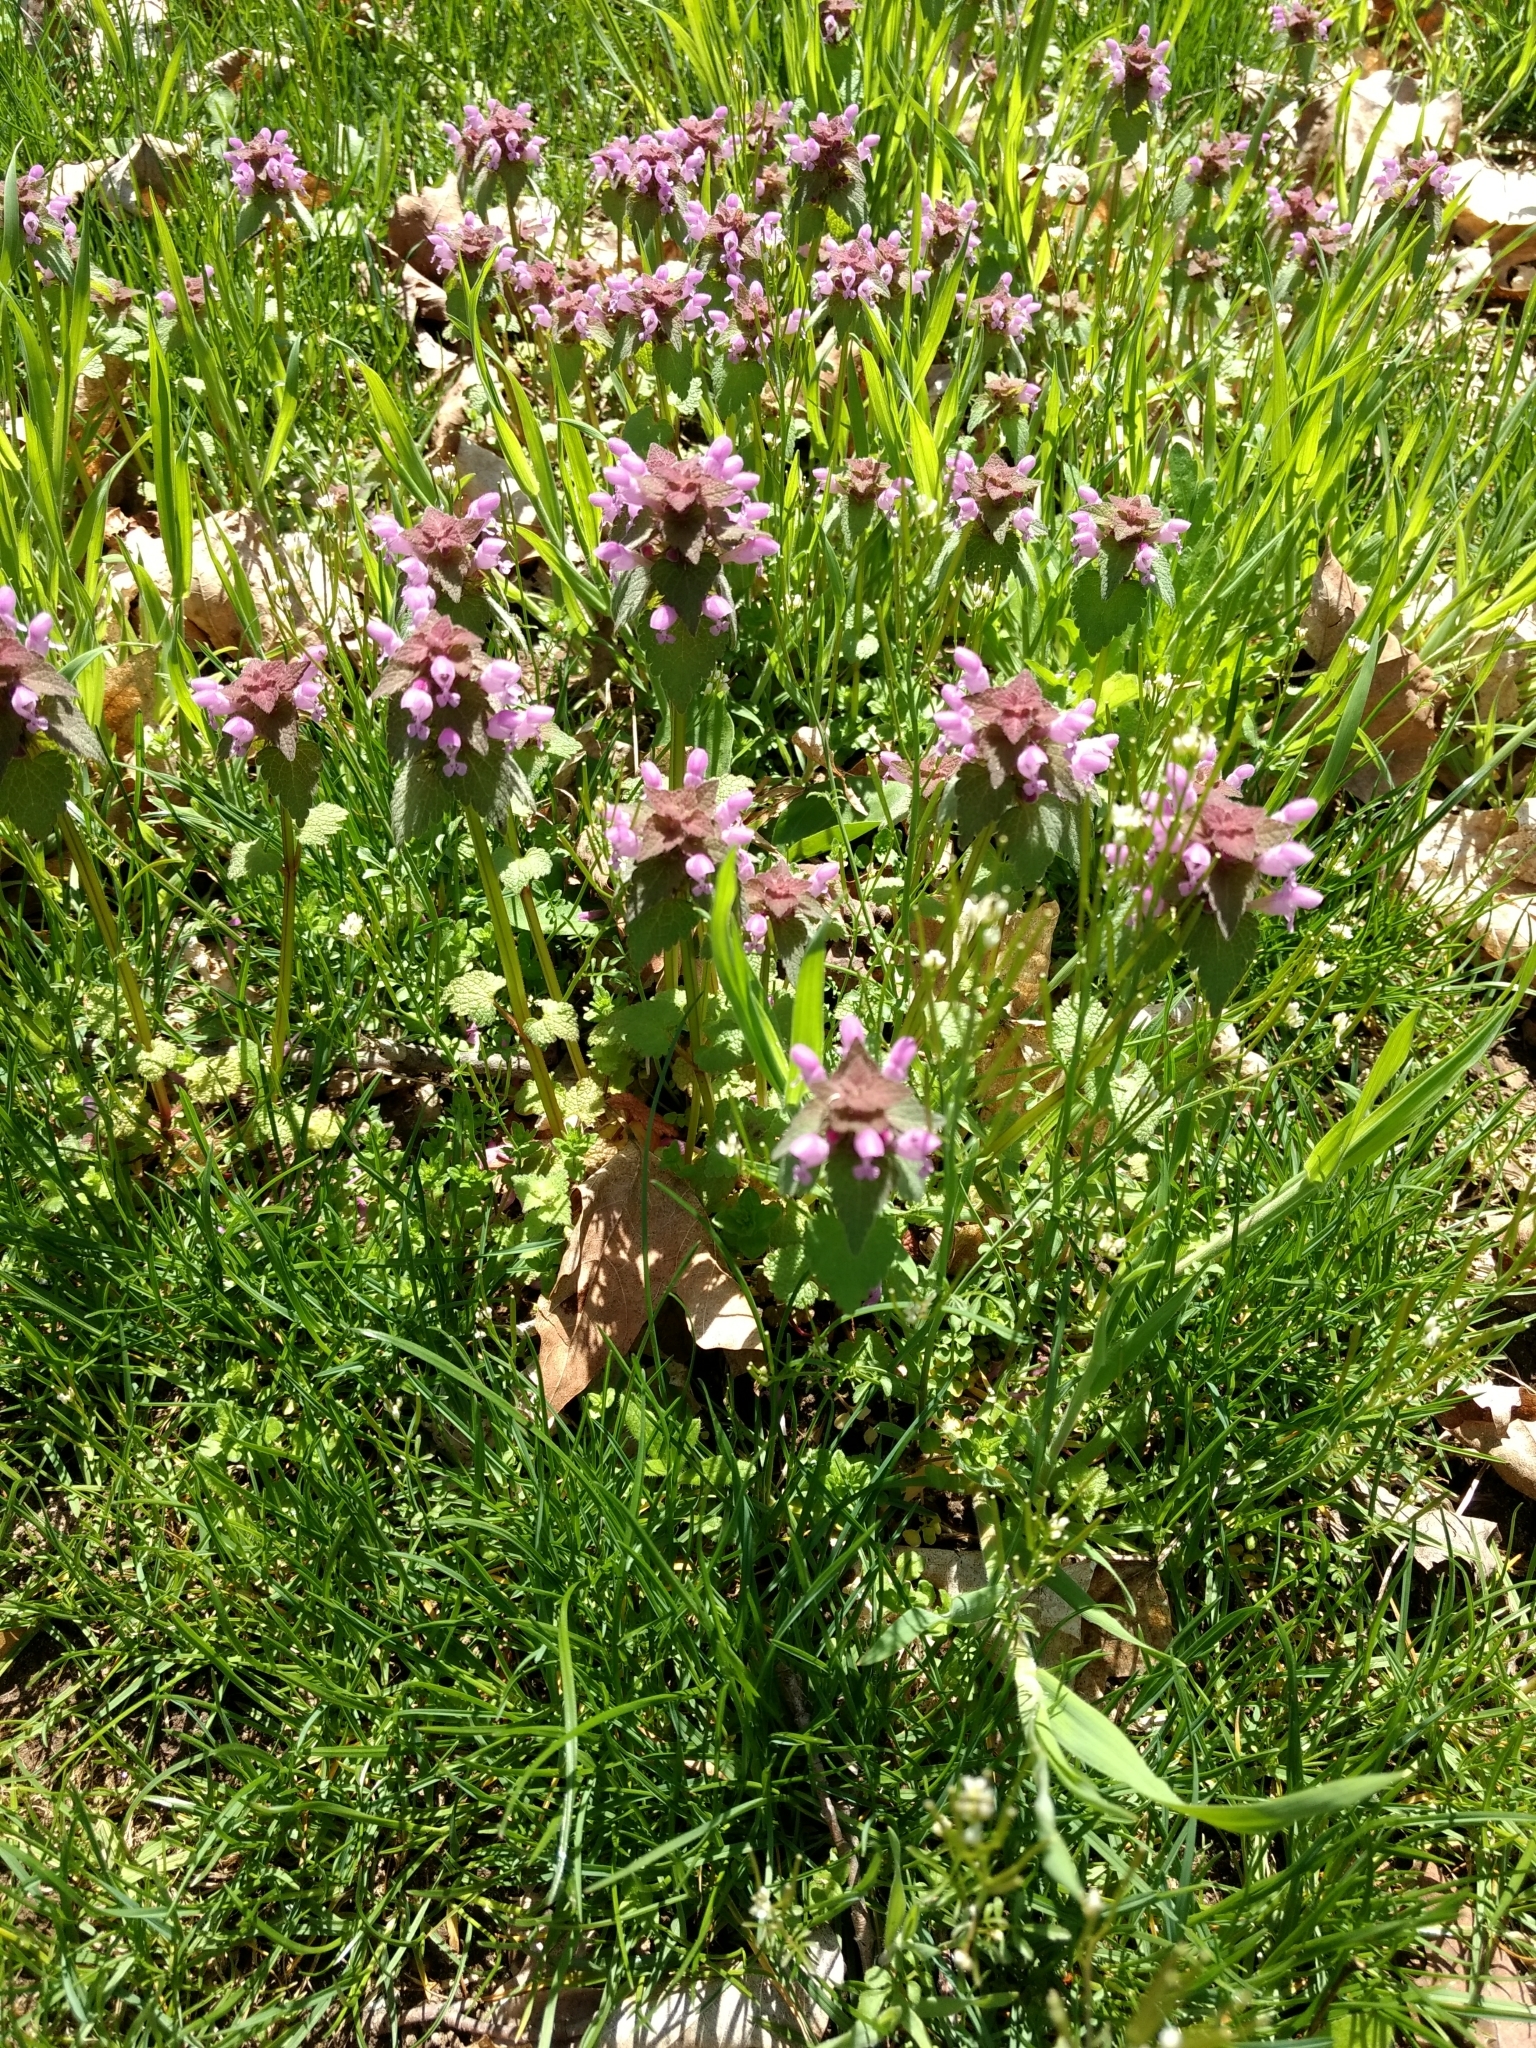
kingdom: Plantae
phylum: Tracheophyta
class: Magnoliopsida
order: Lamiales
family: Lamiaceae
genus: Lamium
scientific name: Lamium purpureum
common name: Red dead-nettle
